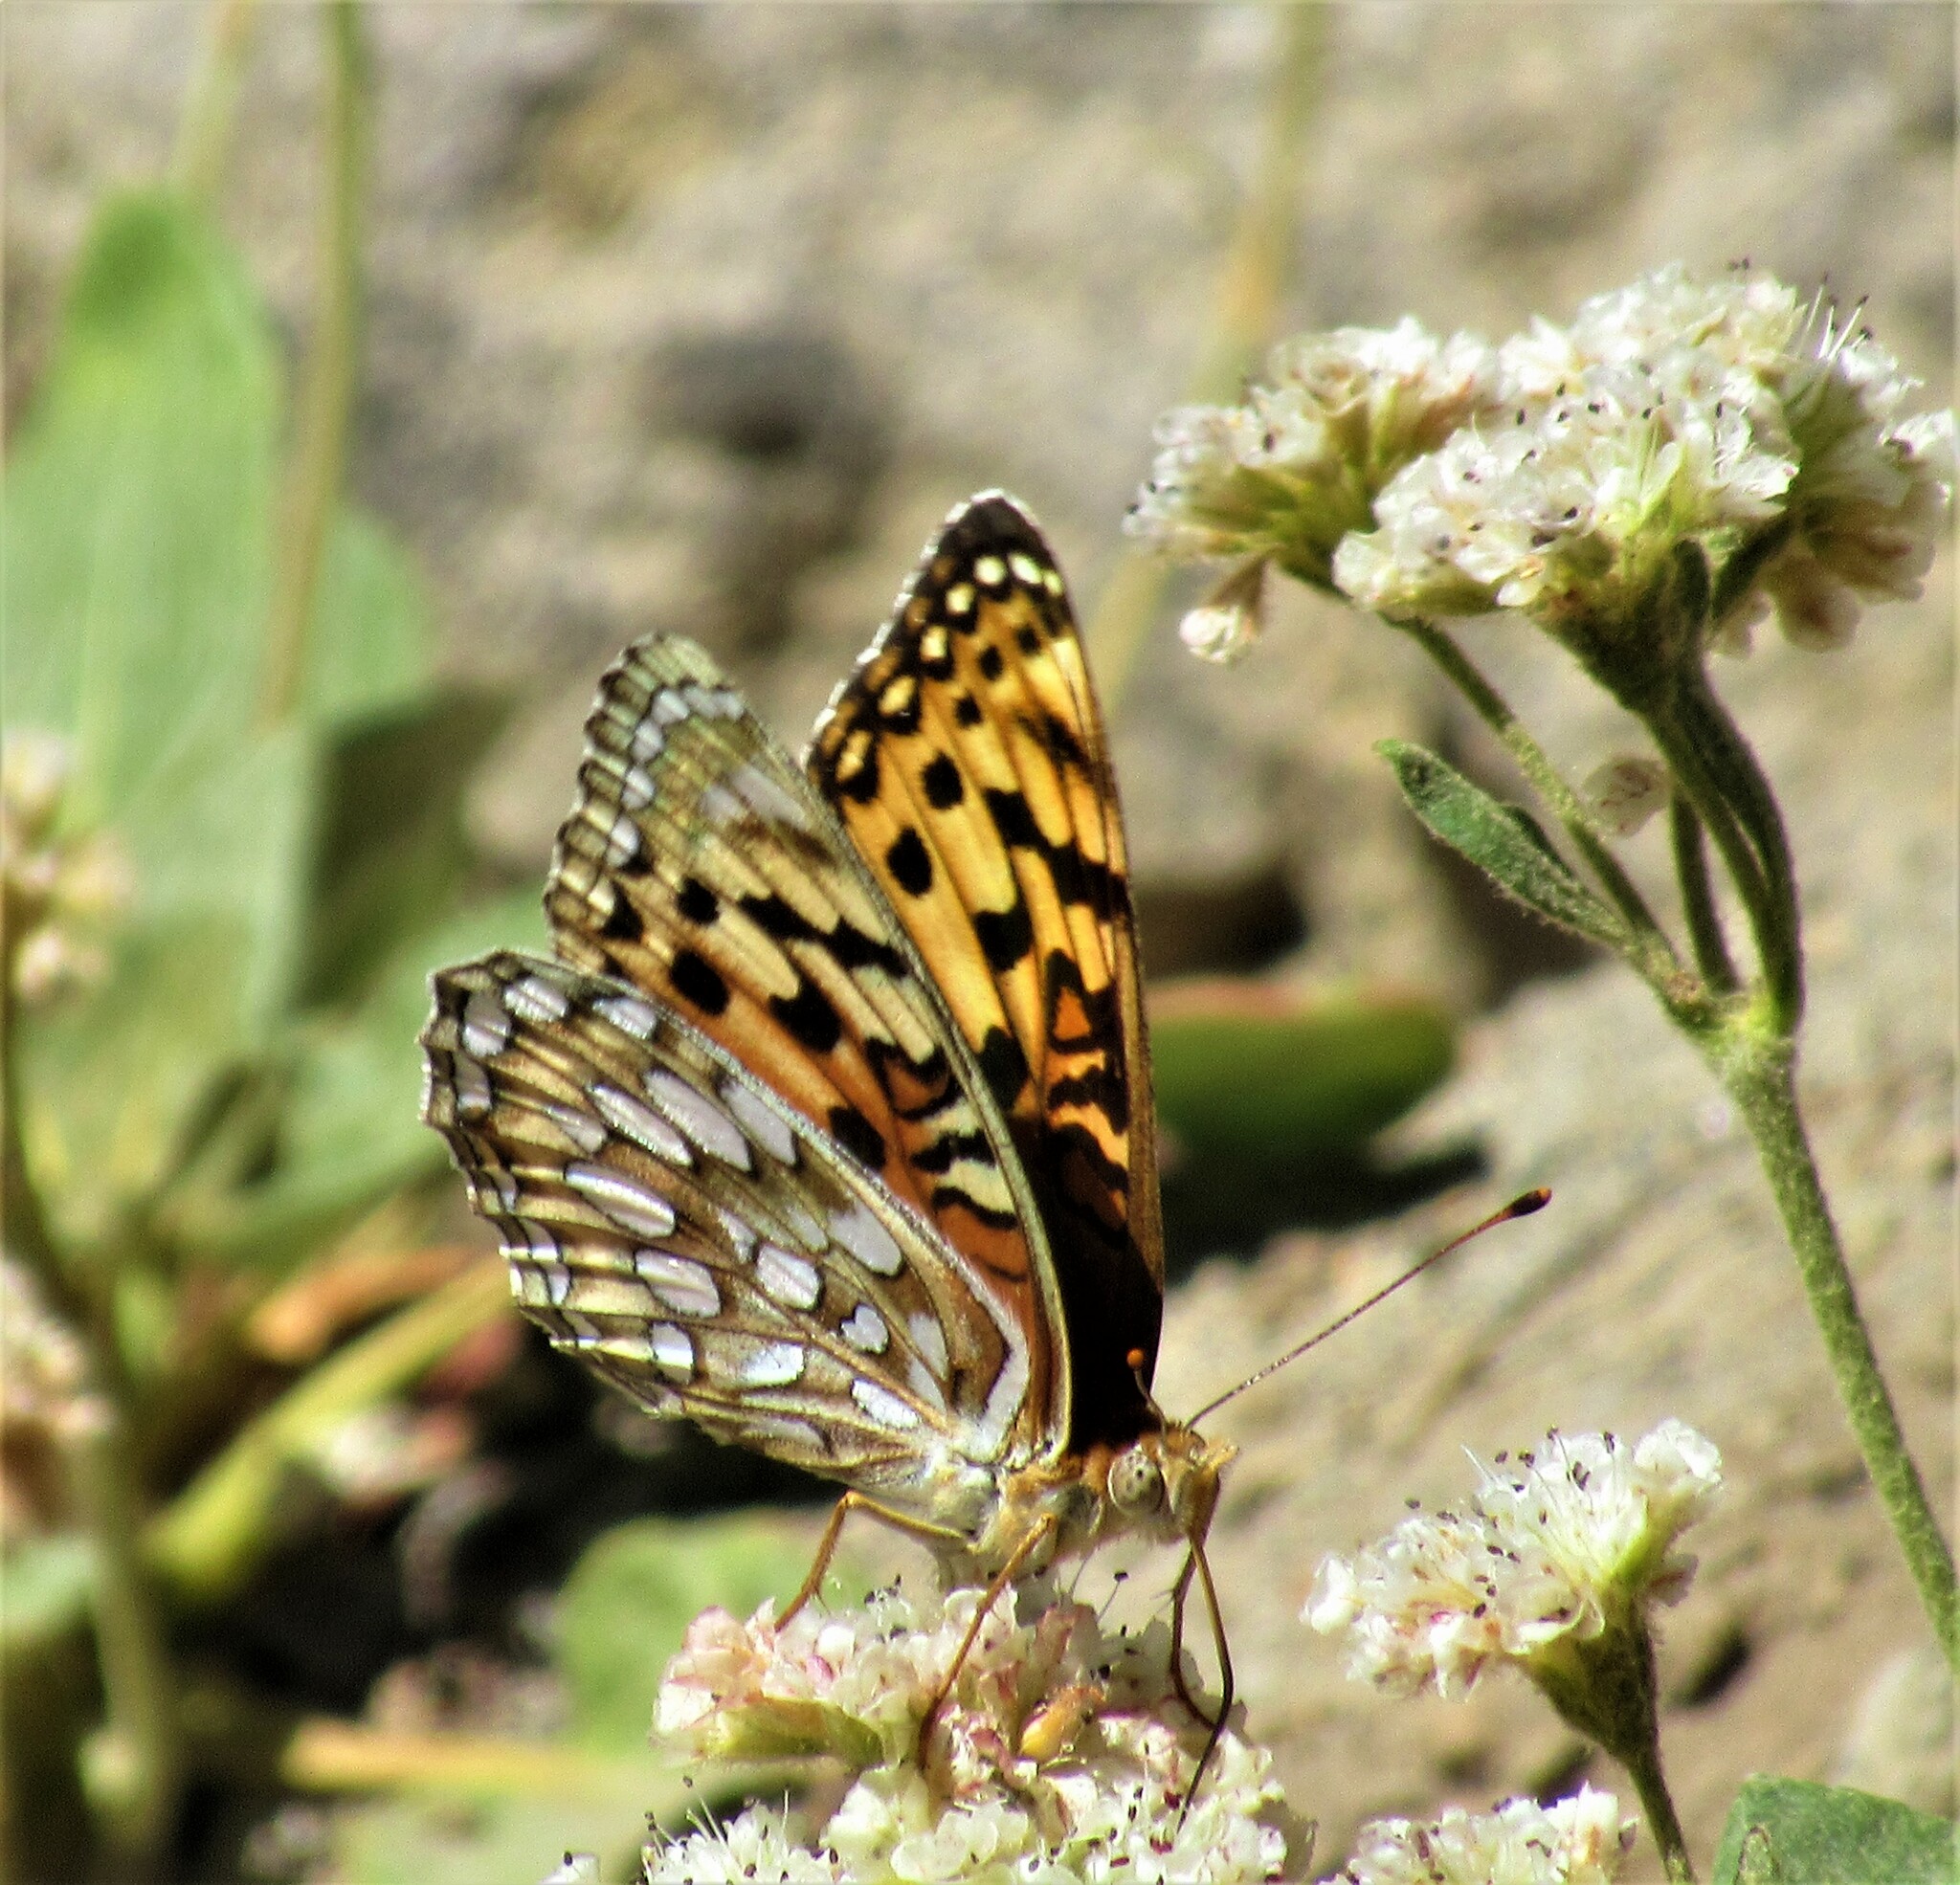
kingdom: Animalia
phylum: Arthropoda
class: Insecta
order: Lepidoptera
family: Nymphalidae
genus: Argynnis
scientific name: Argynnis coronis
